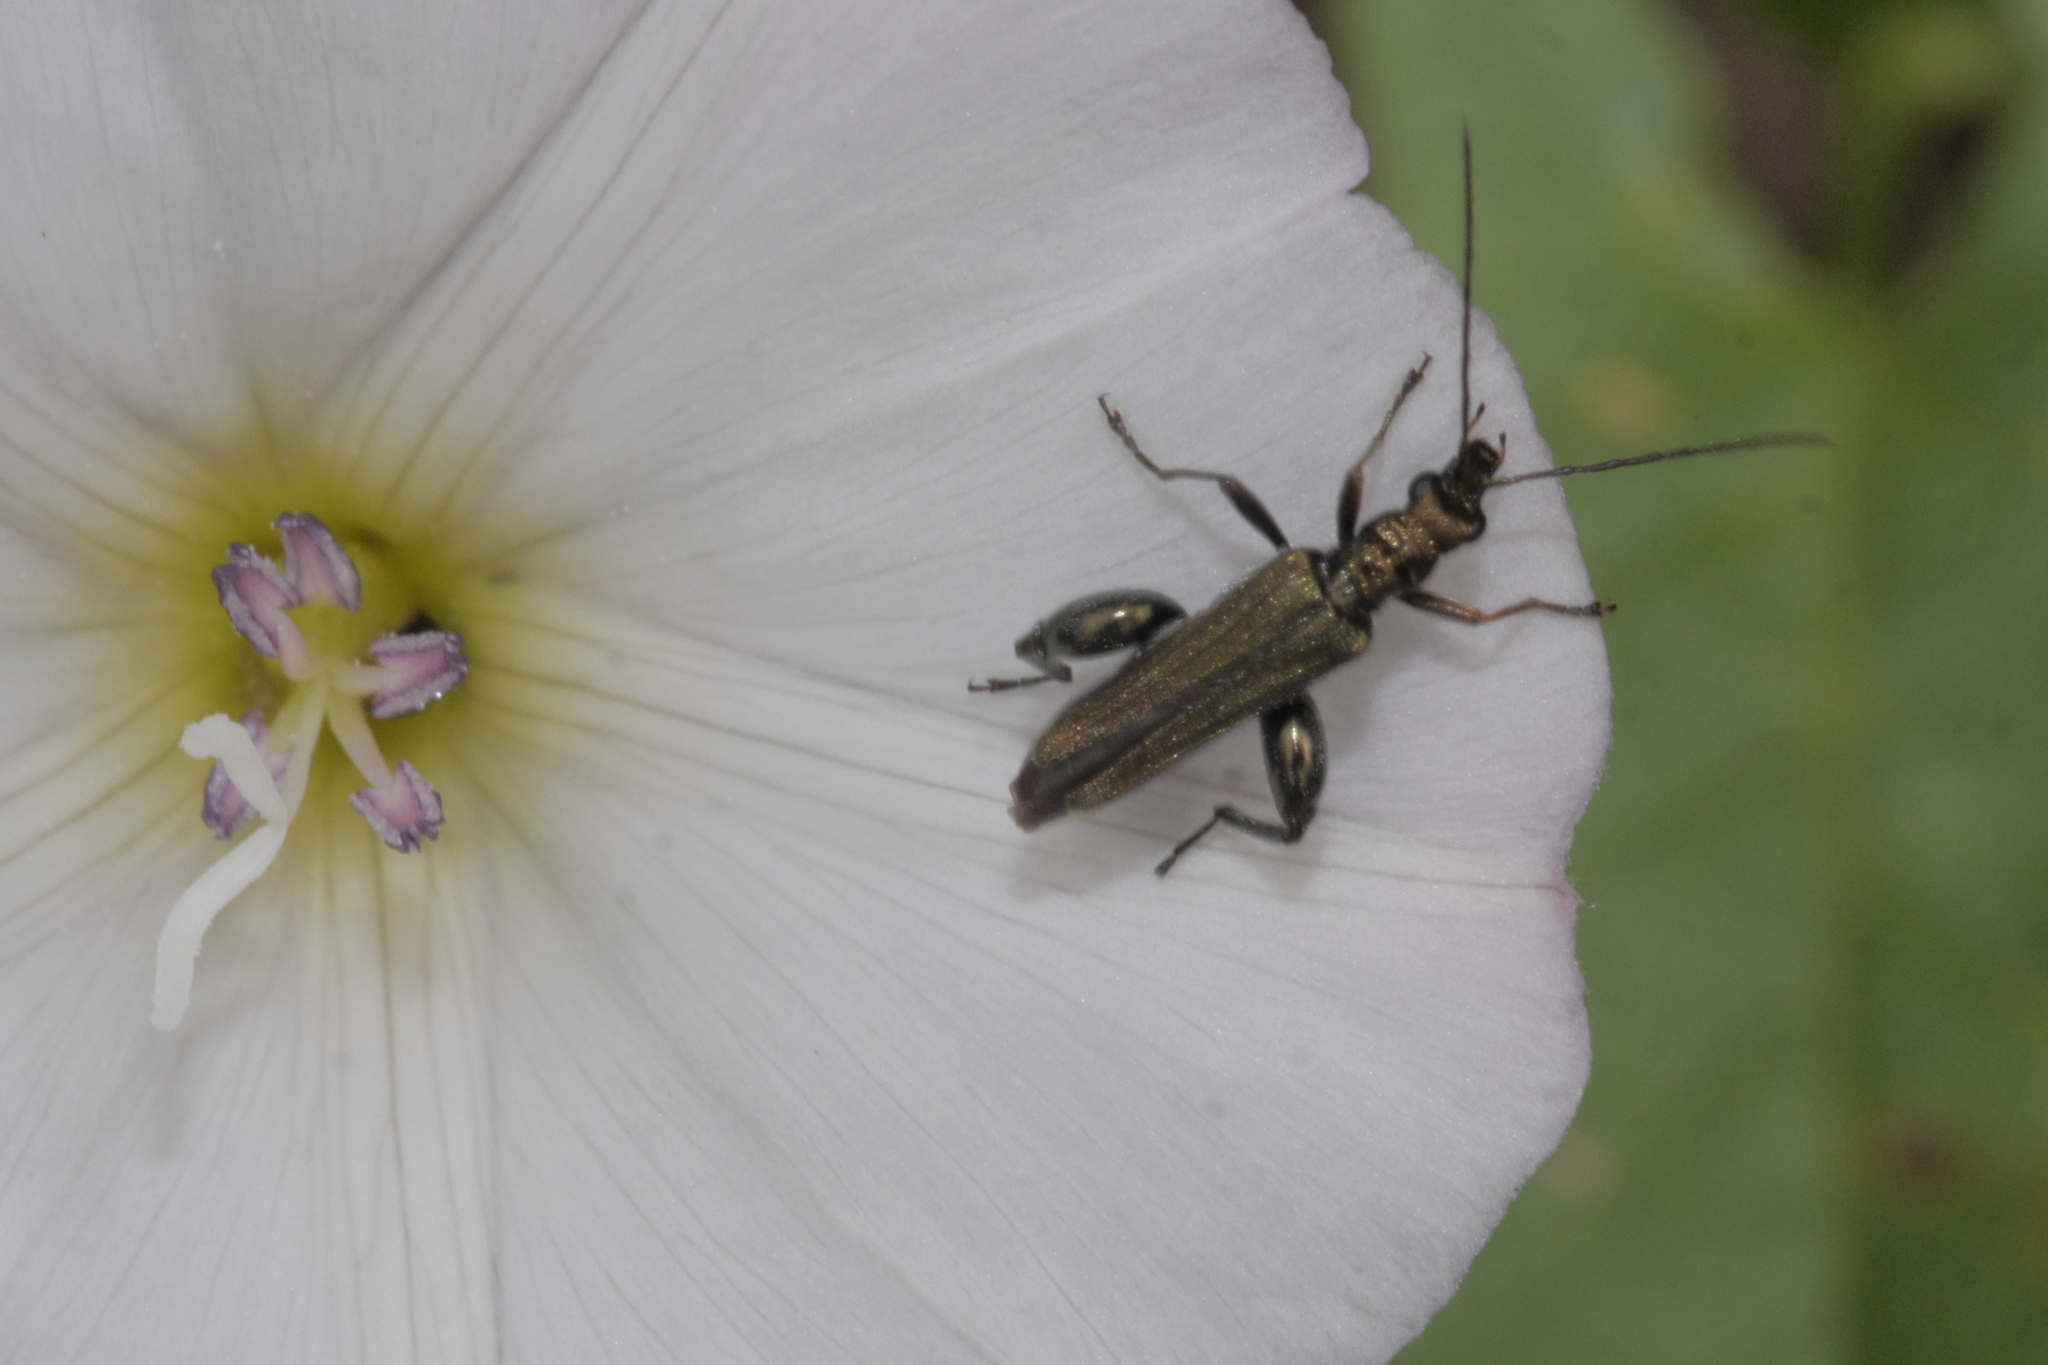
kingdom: Animalia
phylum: Arthropoda
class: Insecta
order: Coleoptera
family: Oedemeridae
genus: Oedemera
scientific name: Oedemera flavipes
